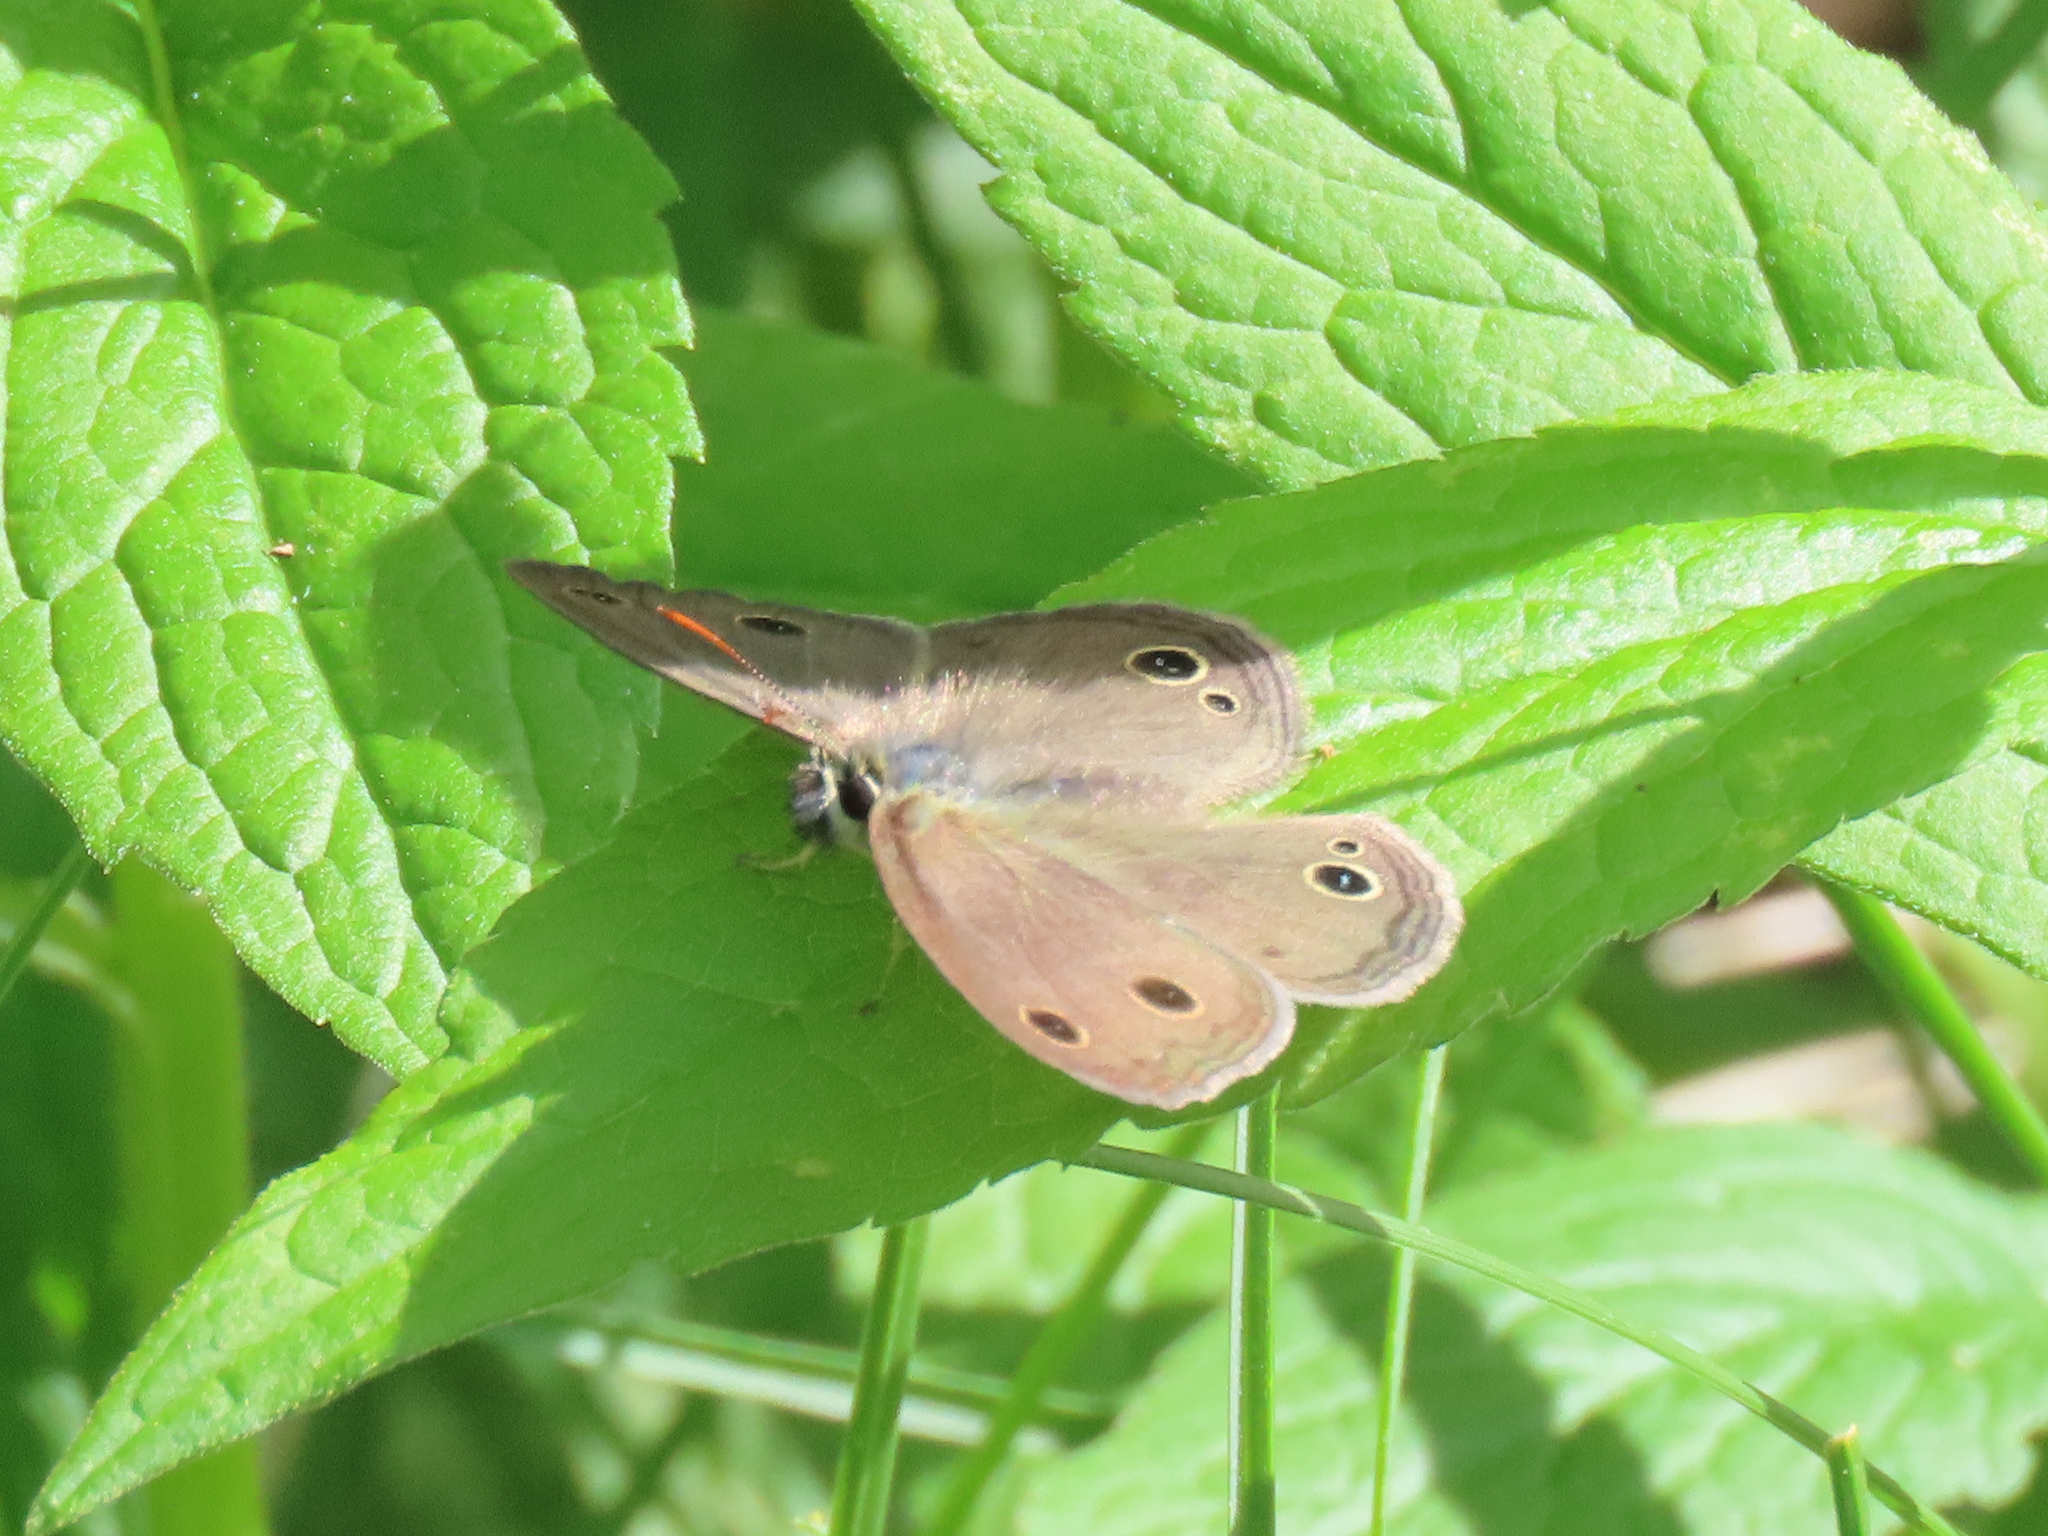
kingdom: Animalia
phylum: Arthropoda
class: Insecta
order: Lepidoptera
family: Nymphalidae
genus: Euptychia
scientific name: Euptychia cymela
